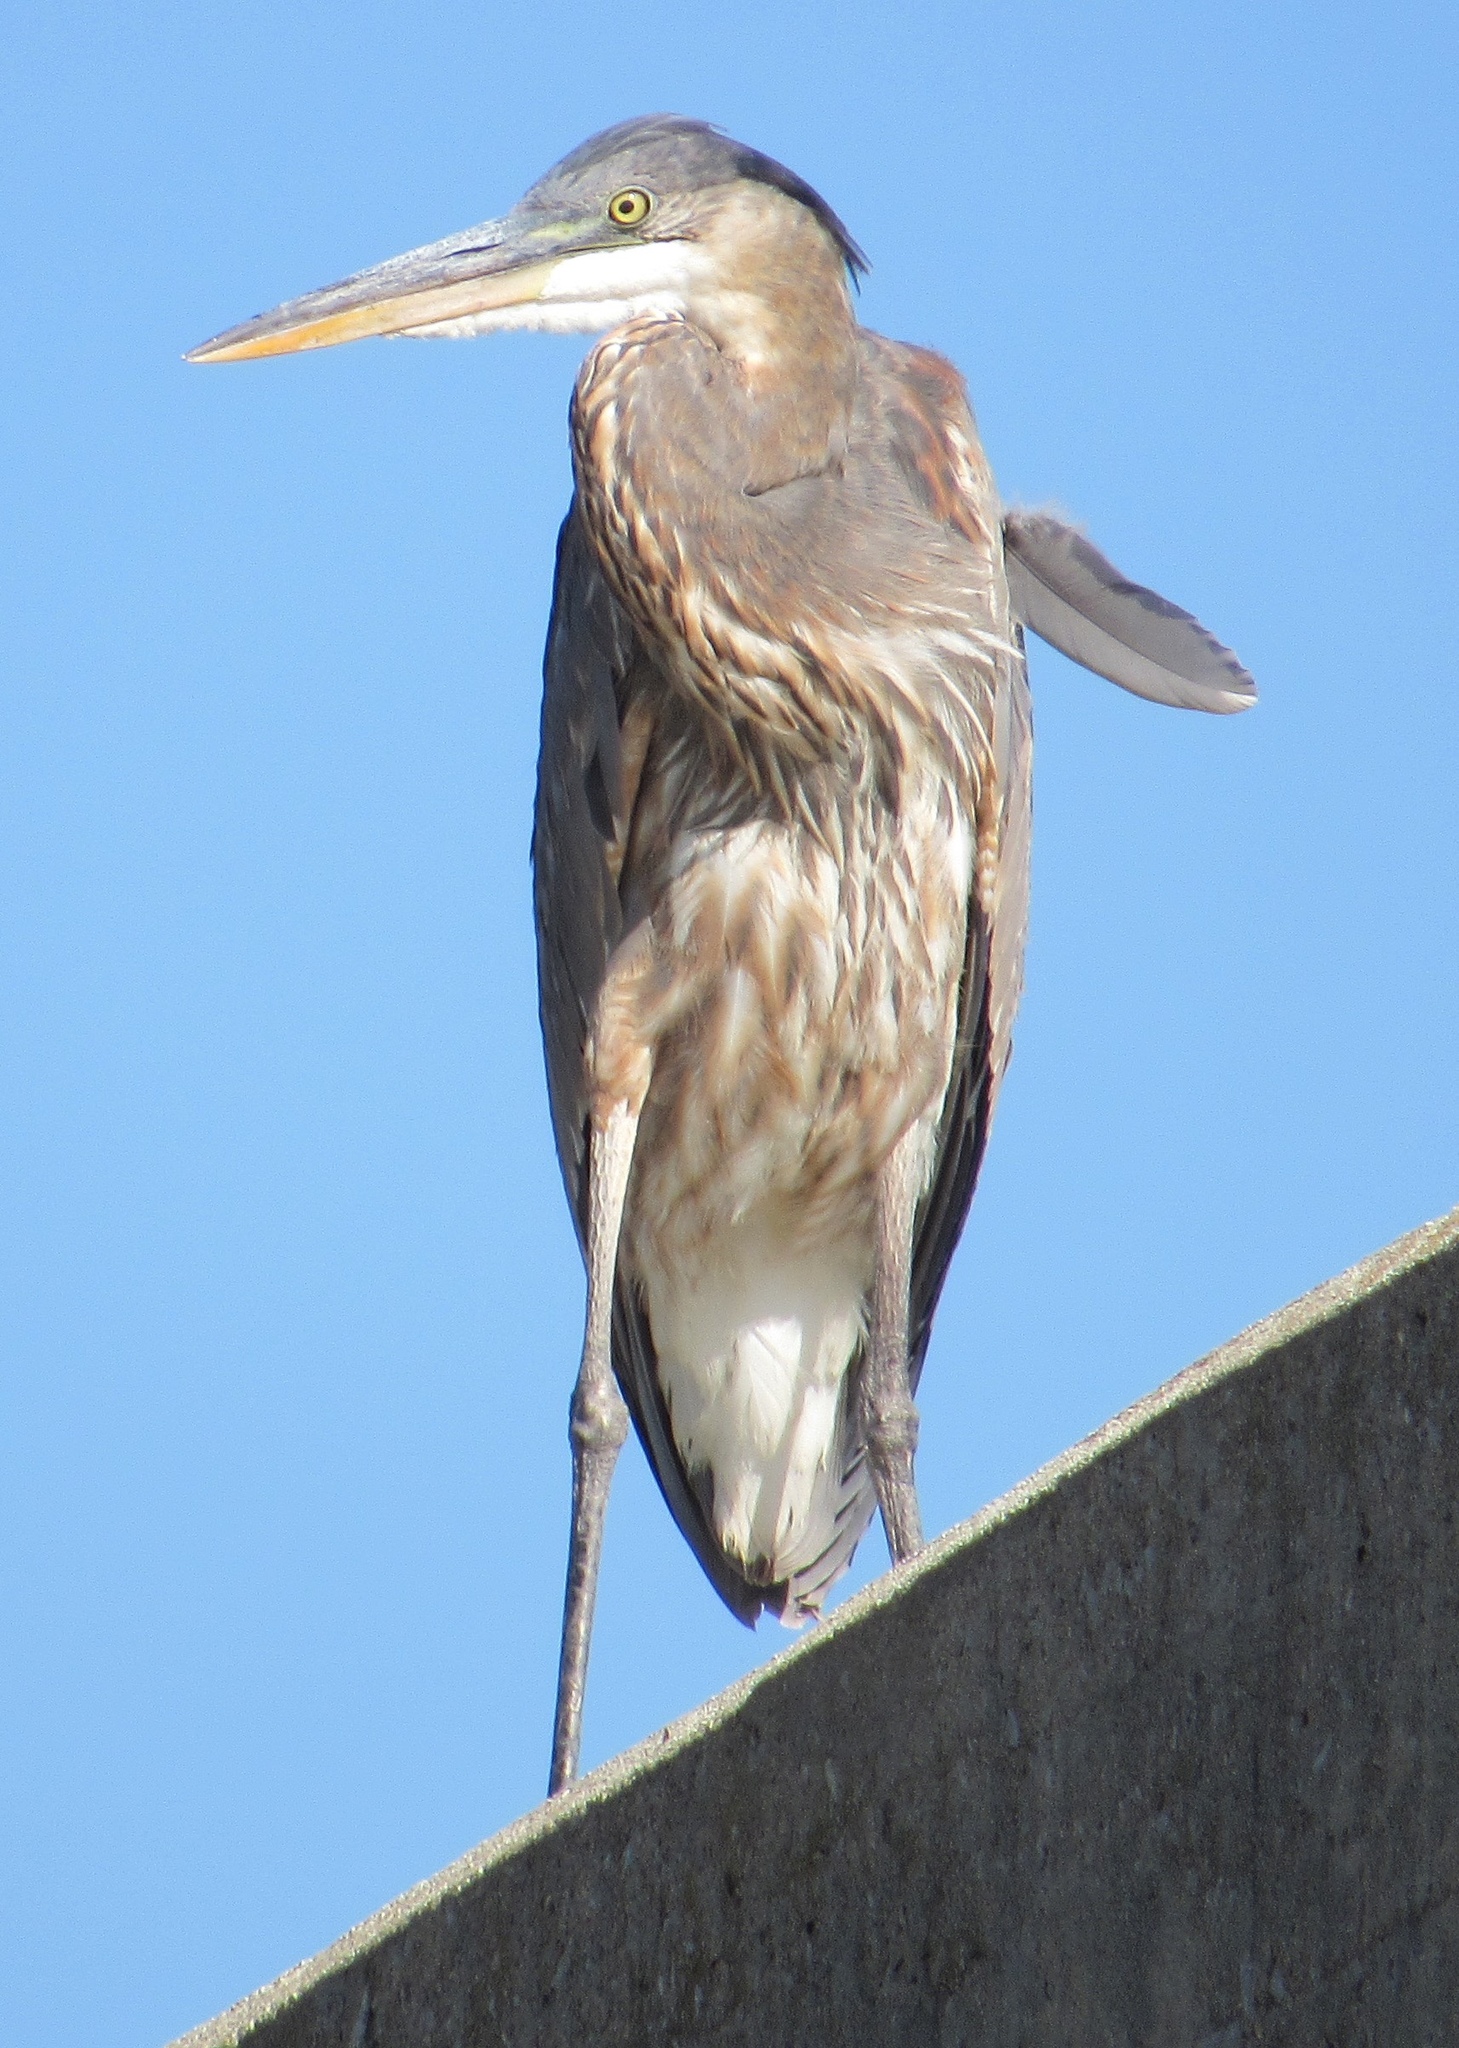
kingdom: Animalia
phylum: Chordata
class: Aves
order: Pelecaniformes
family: Ardeidae
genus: Ardea
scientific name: Ardea herodias
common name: Great blue heron
